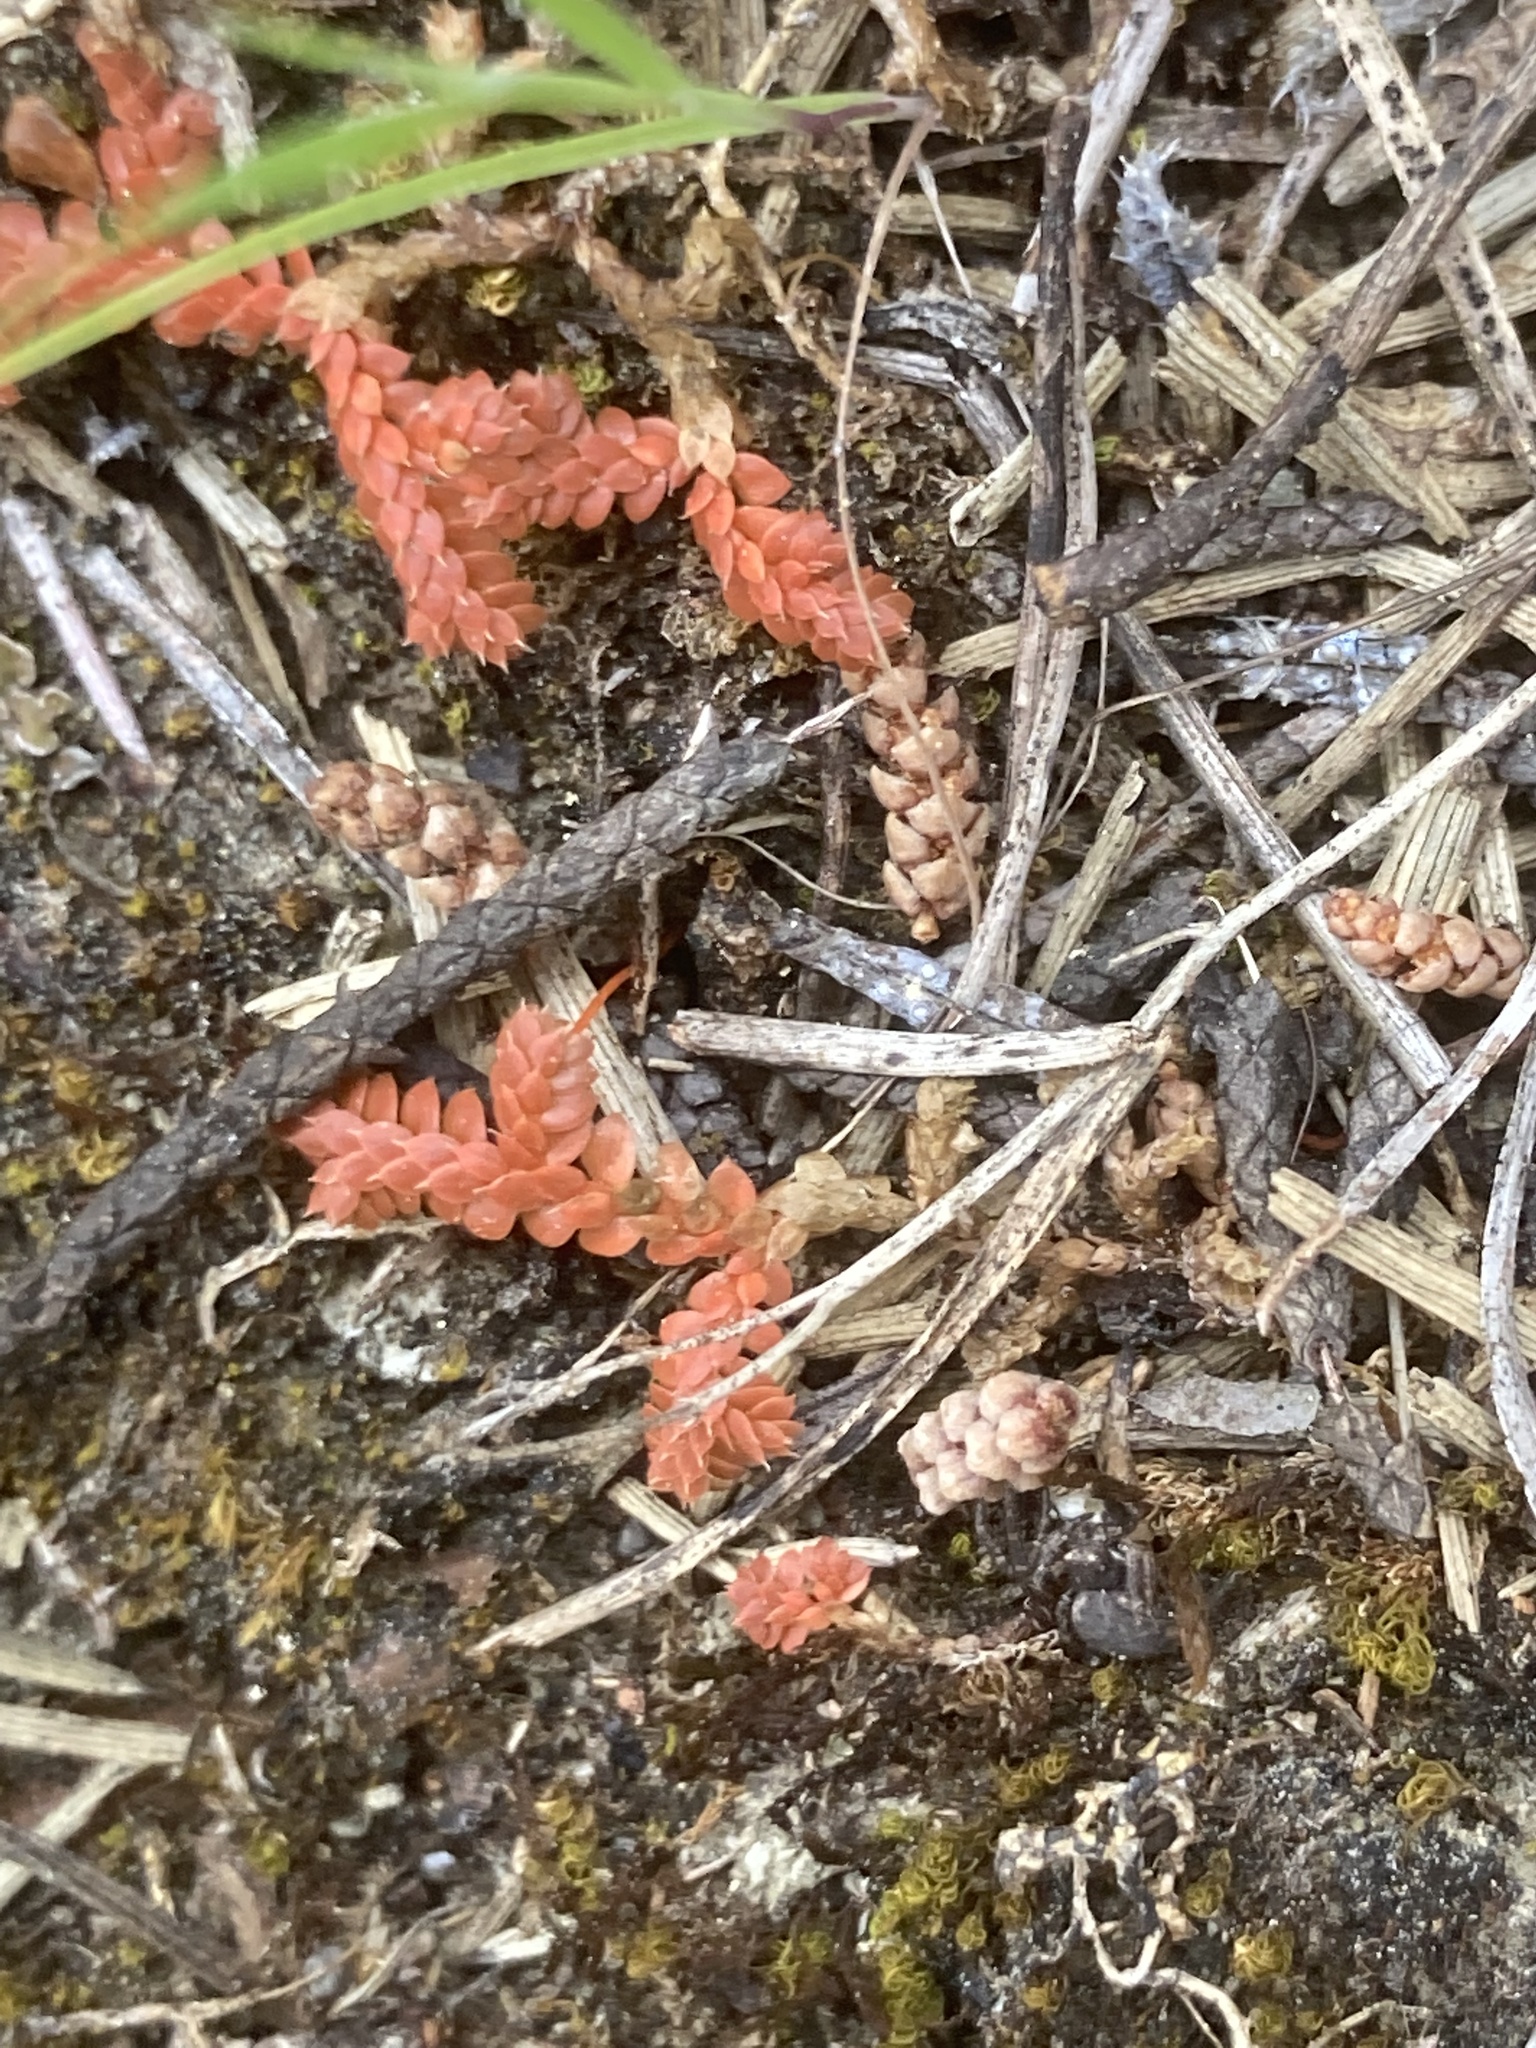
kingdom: Plantae
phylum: Tracheophyta
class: Lycopodiopsida
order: Selaginellales
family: Selaginellaceae
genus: Selaginella
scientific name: Selaginella denticulata
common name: Toothed-leaved clubmoss
